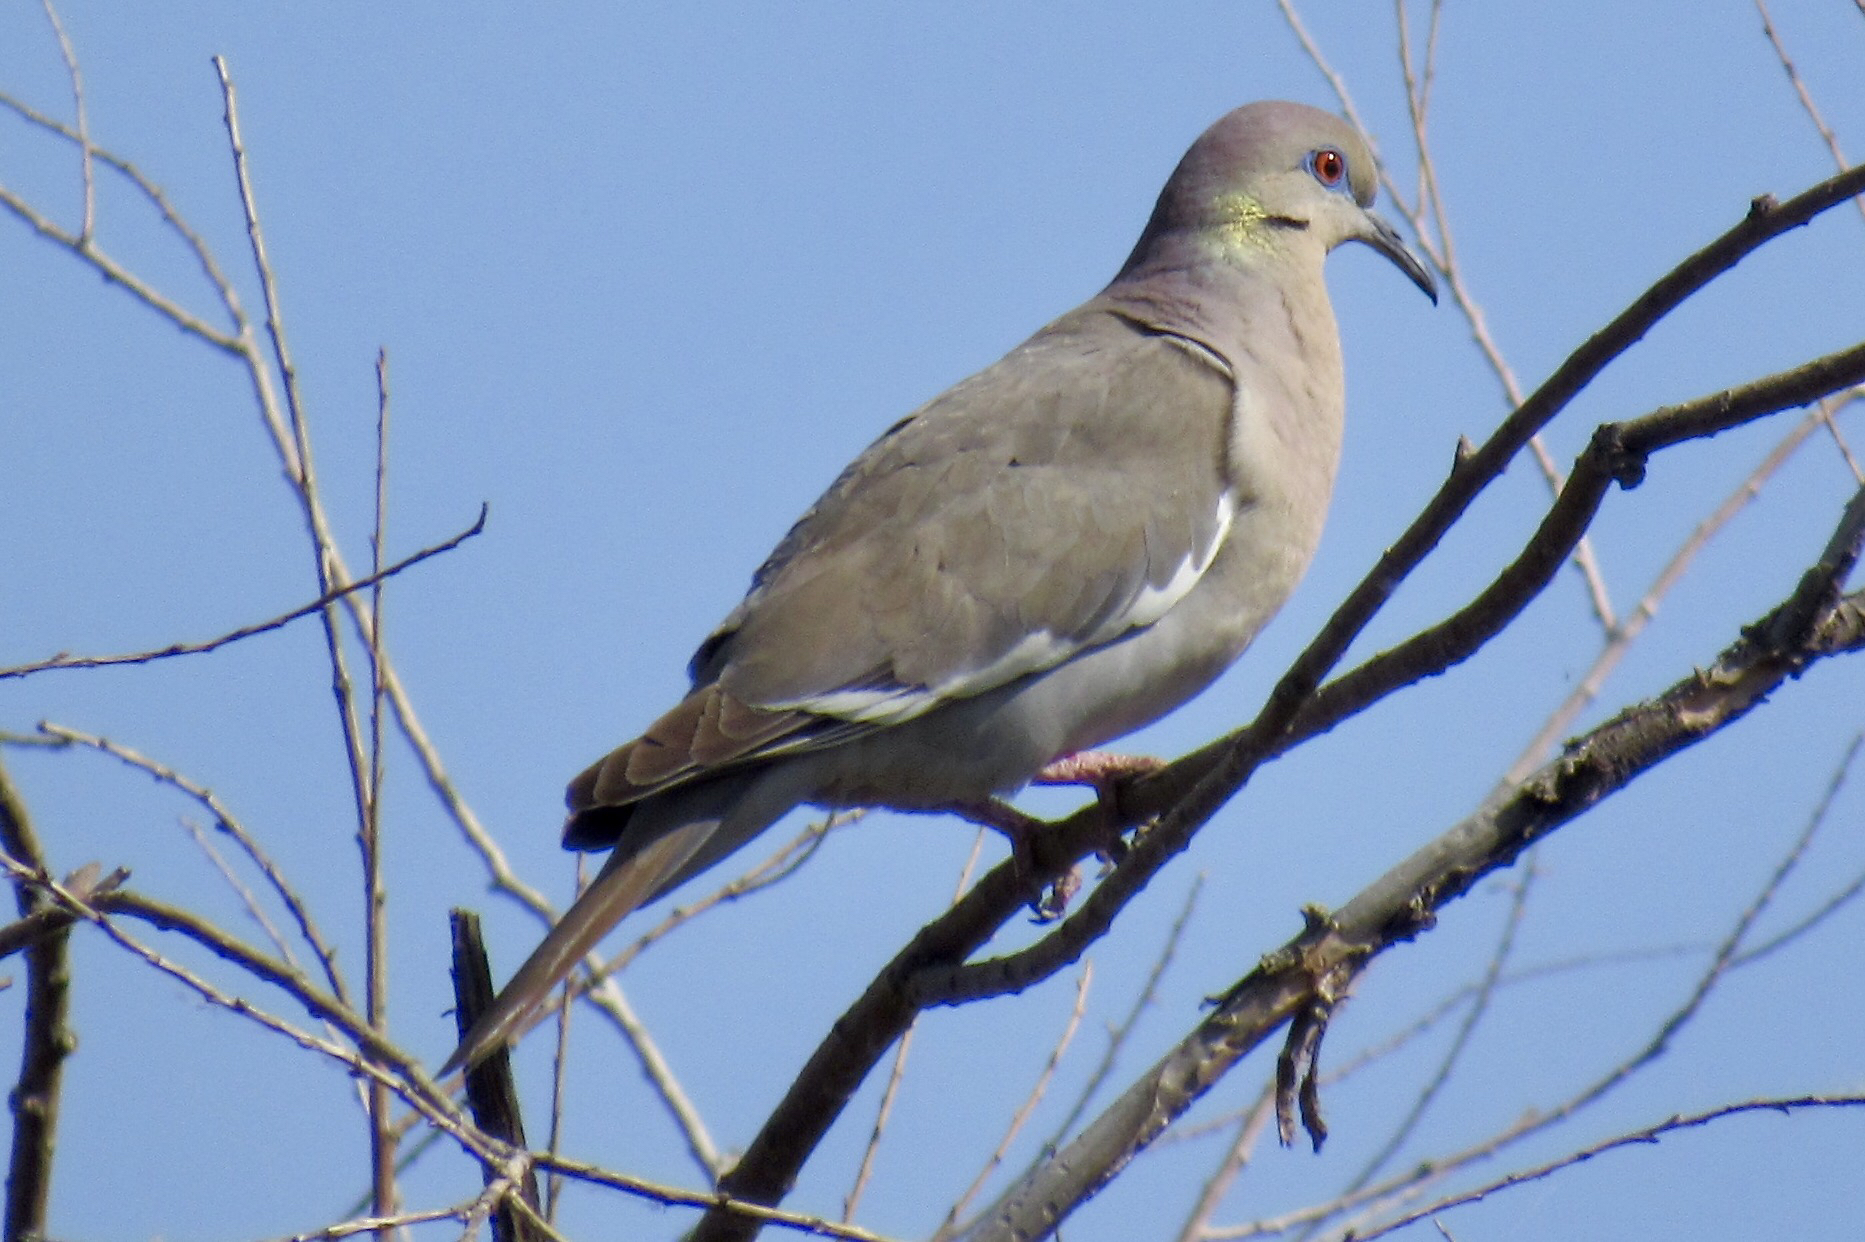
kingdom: Animalia
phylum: Chordata
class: Aves
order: Columbiformes
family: Columbidae
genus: Zenaida
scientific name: Zenaida asiatica
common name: White-winged dove
